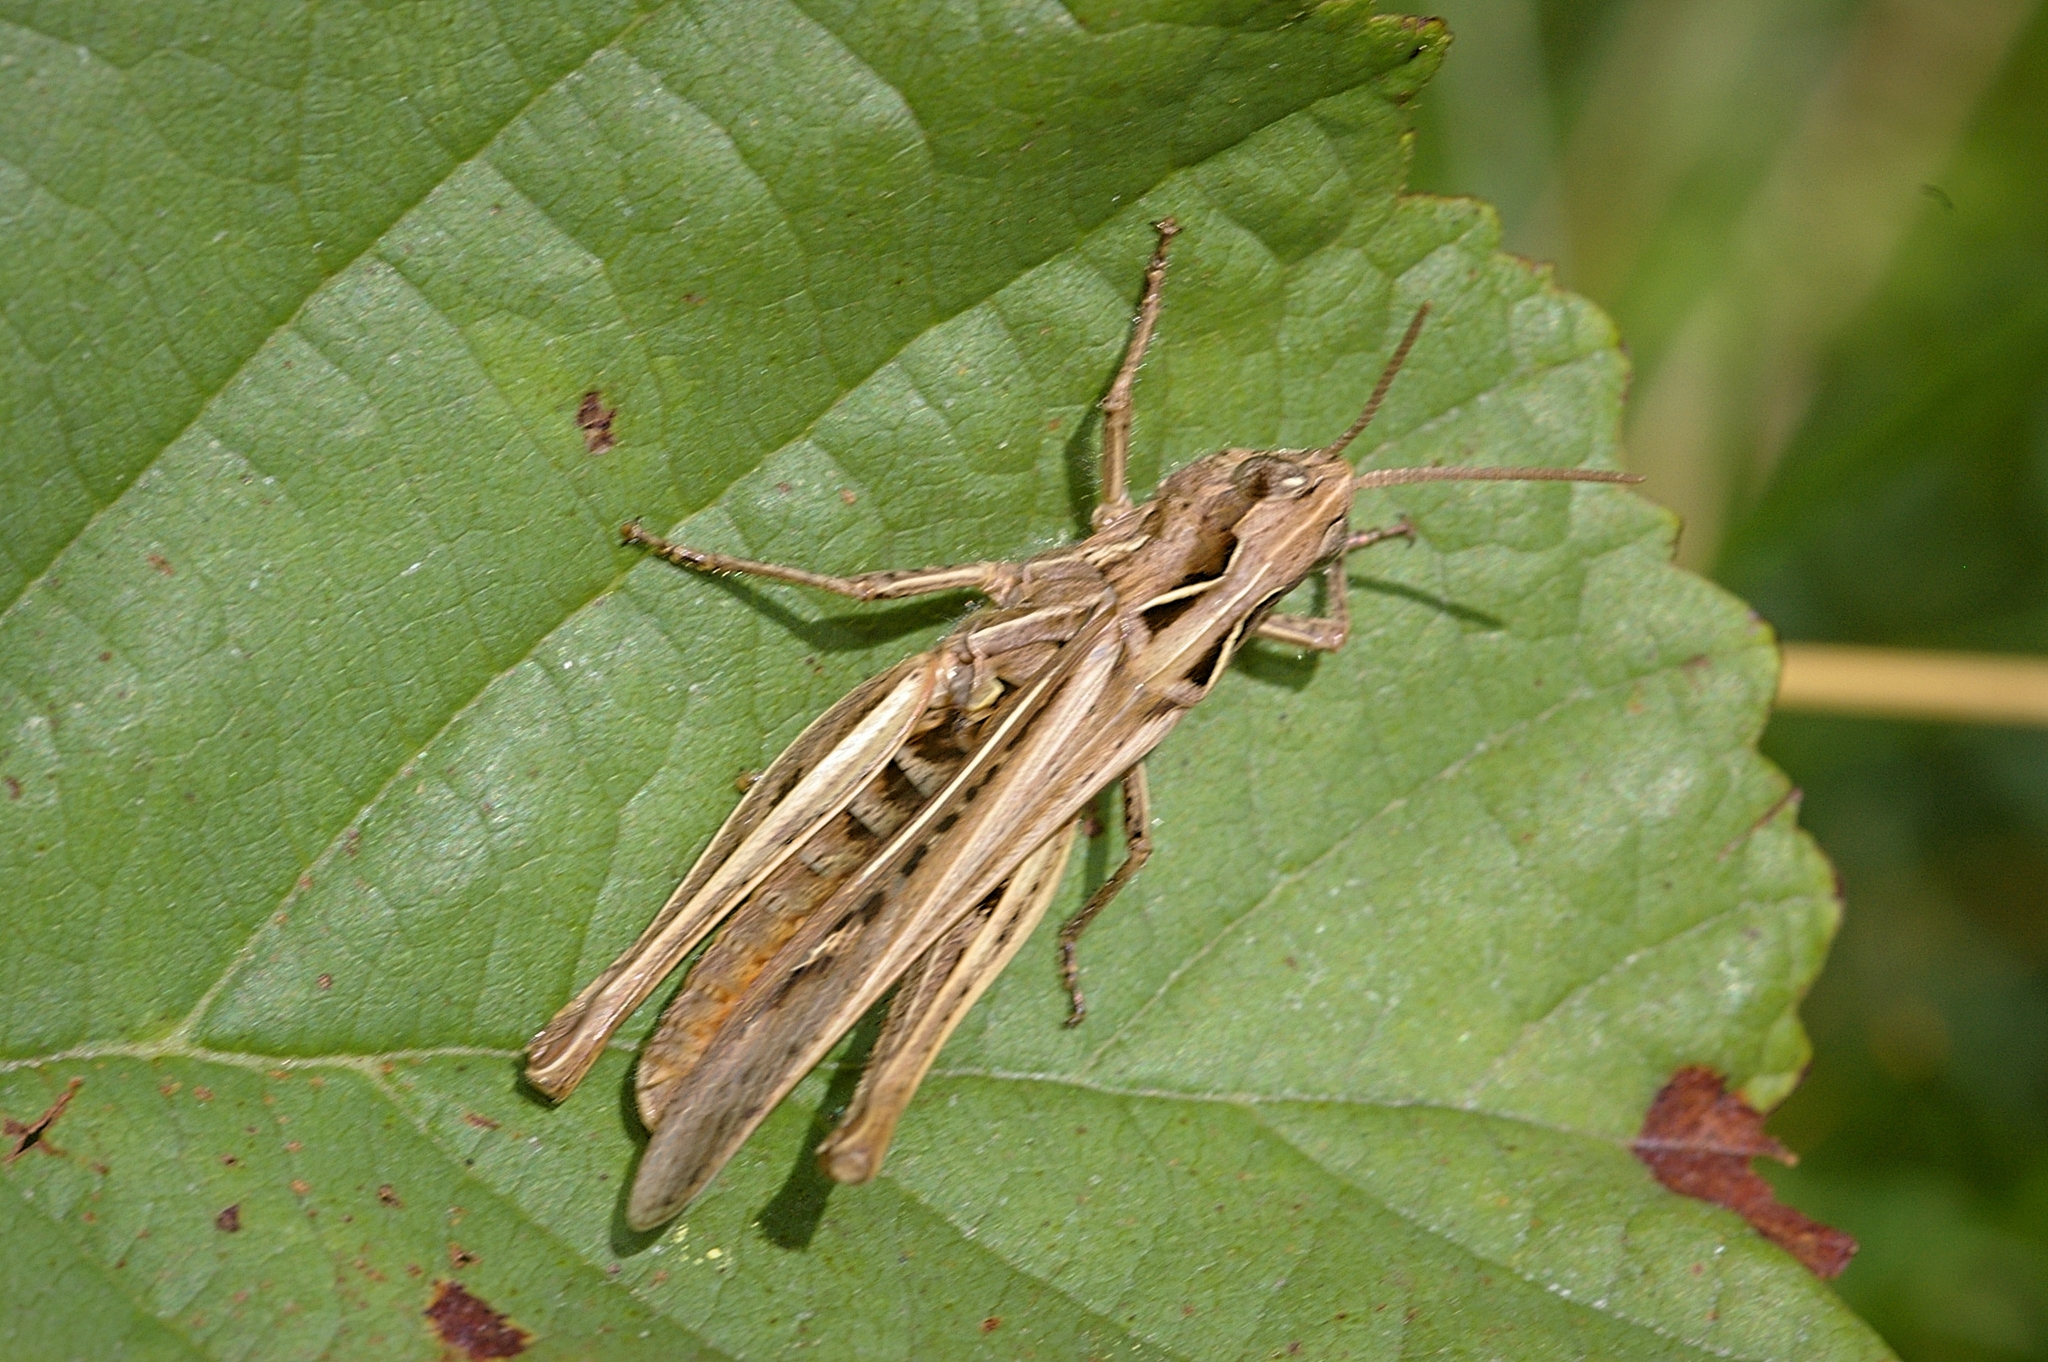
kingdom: Animalia
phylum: Arthropoda
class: Insecta
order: Orthoptera
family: Acrididae
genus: Chorthippus
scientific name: Chorthippus brunneus
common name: Field grasshopper
